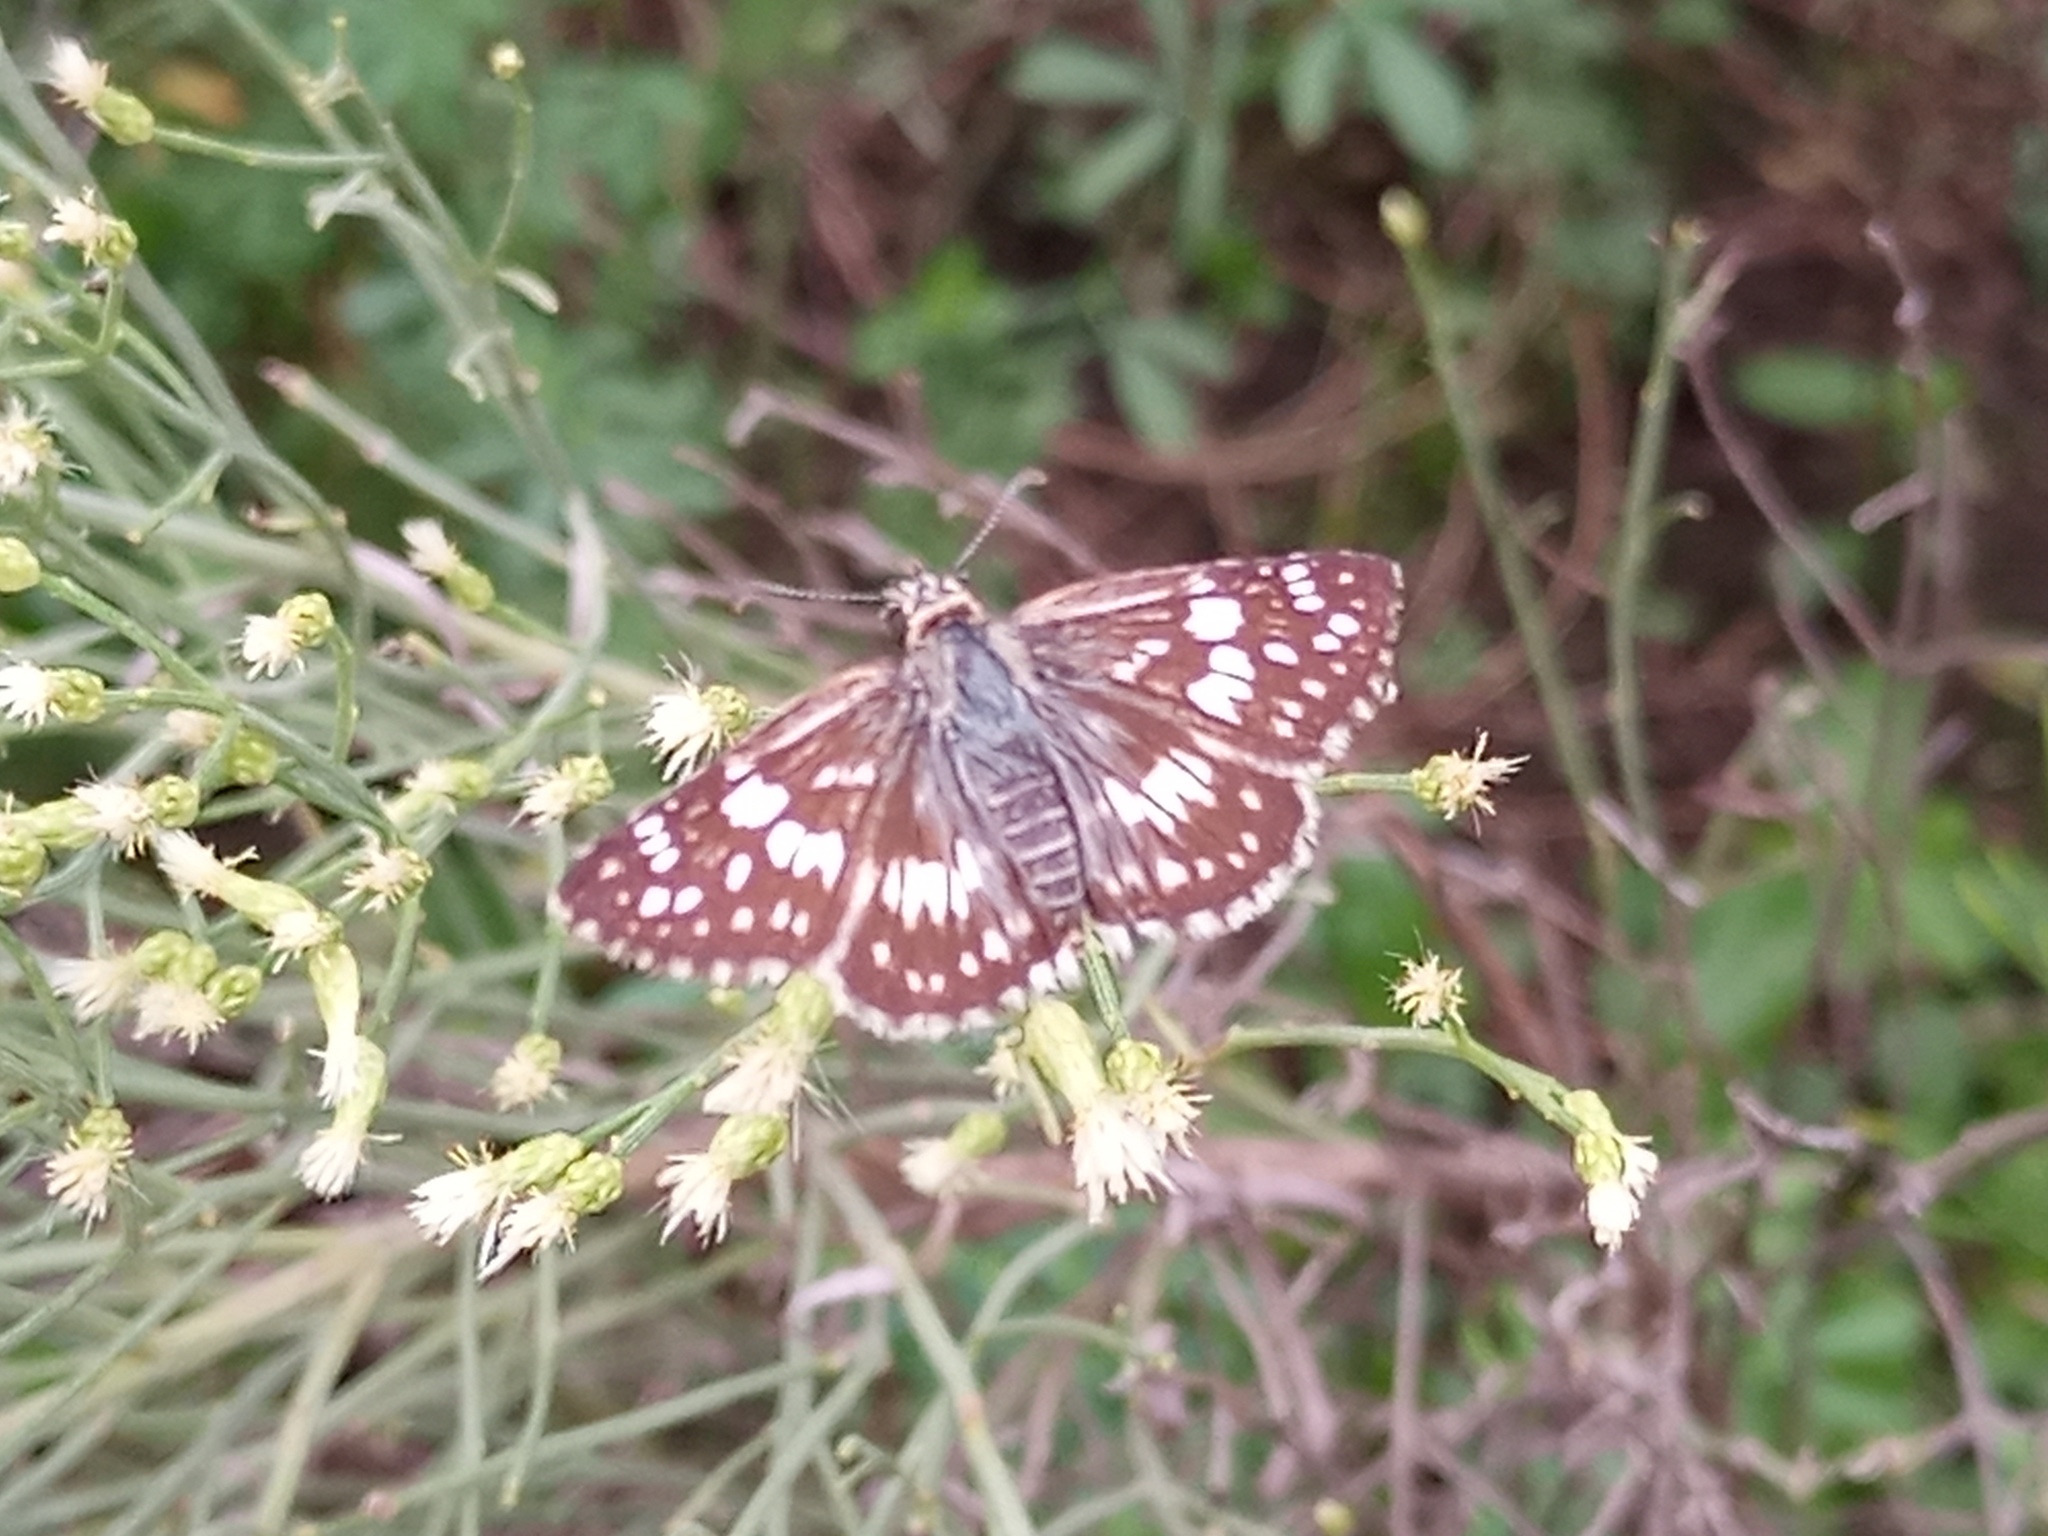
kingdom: Animalia
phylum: Arthropoda
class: Insecta
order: Lepidoptera
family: Hesperiidae
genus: Burnsius
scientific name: Burnsius orcynoides
